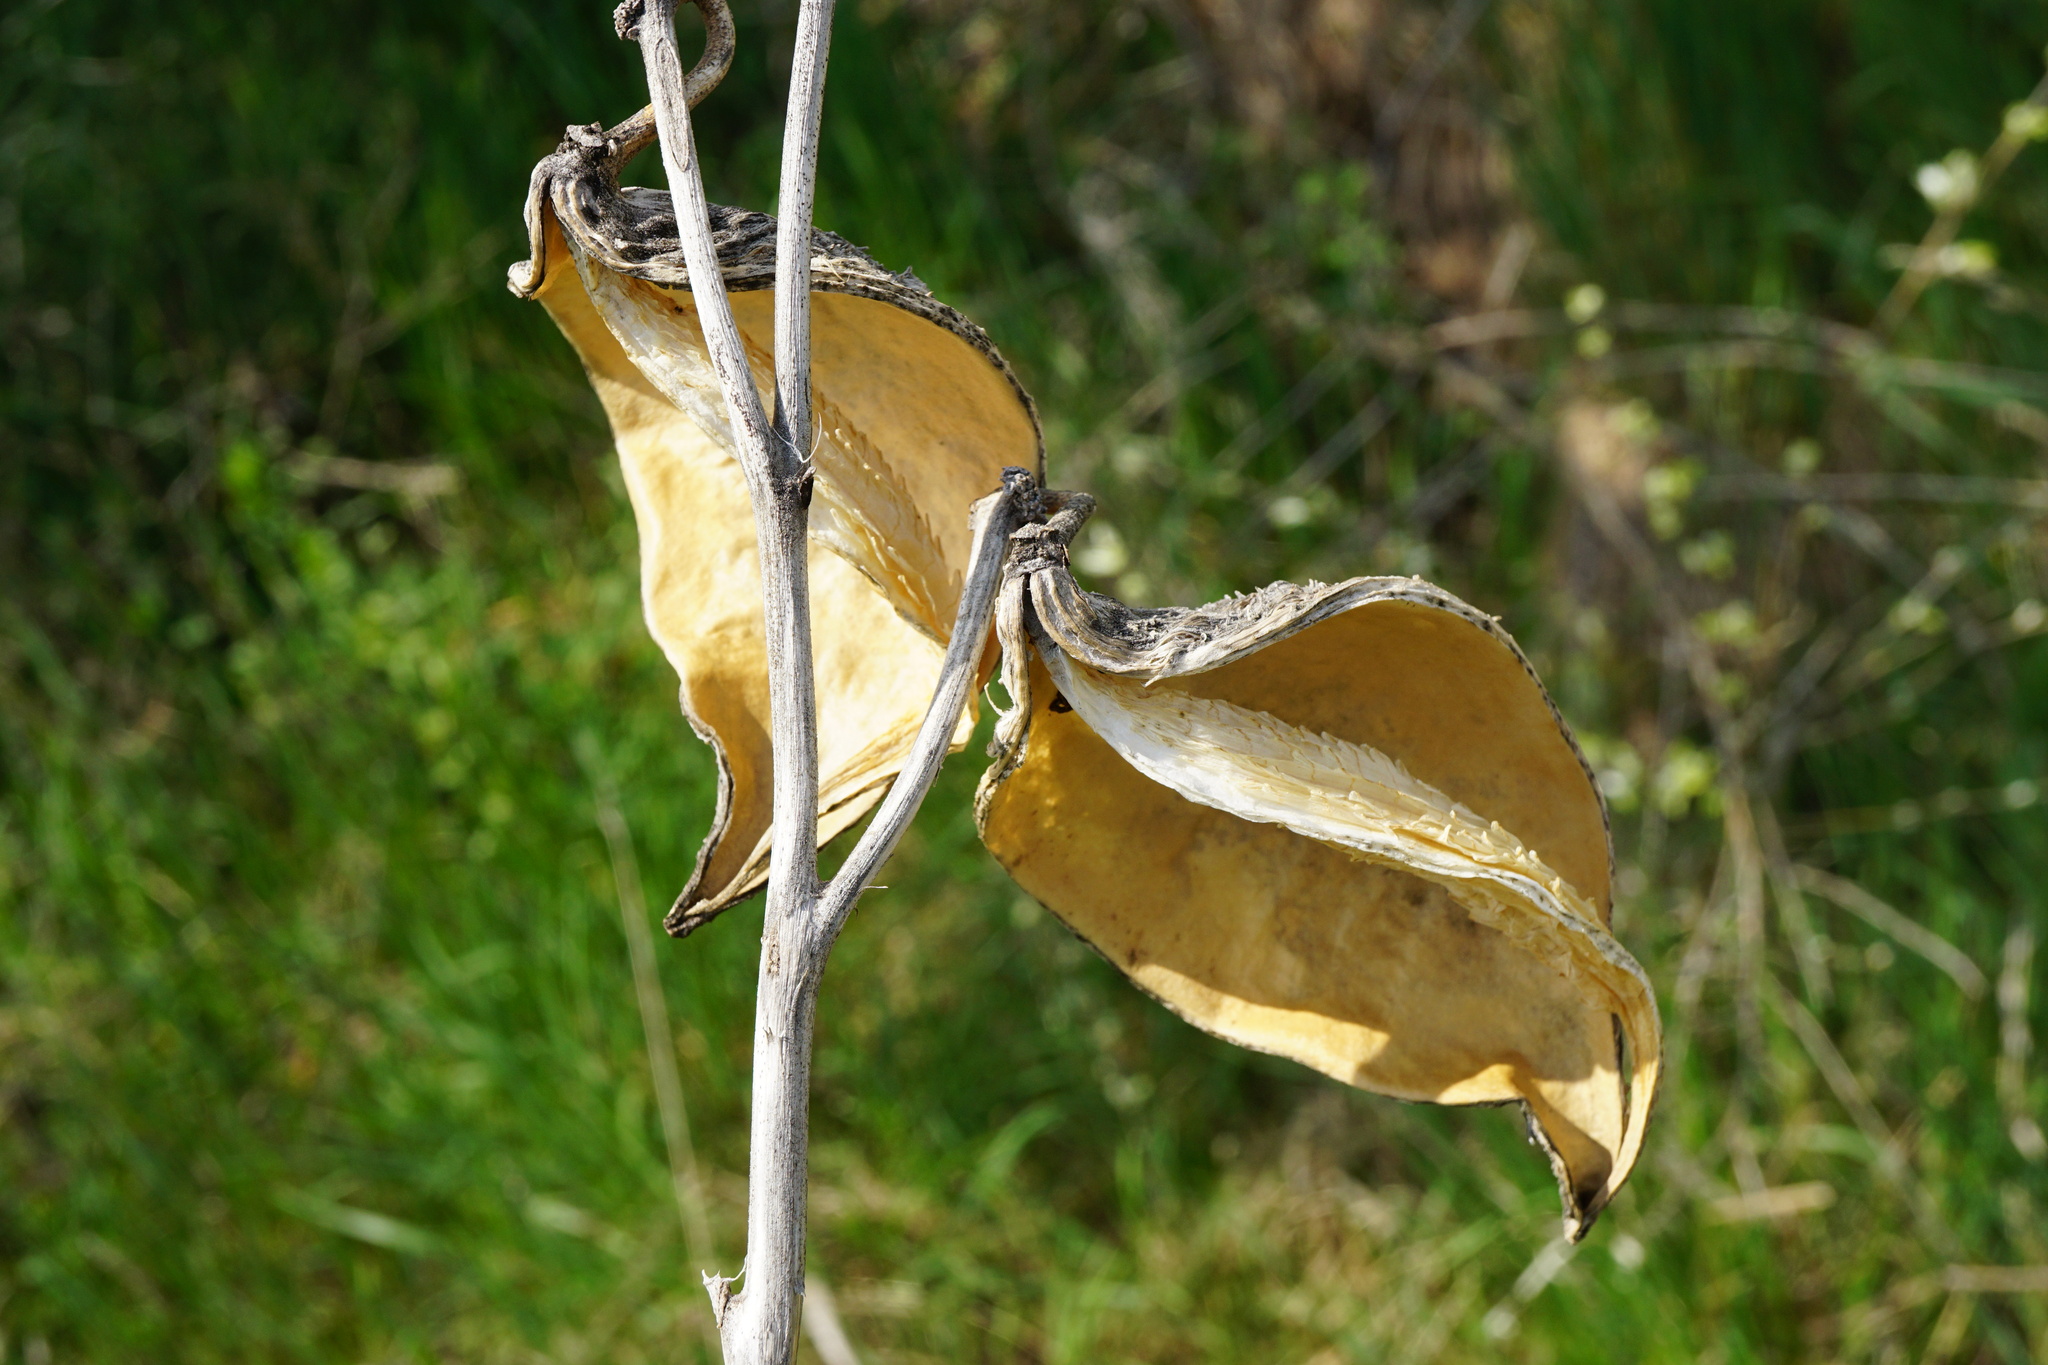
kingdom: Plantae
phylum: Tracheophyta
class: Magnoliopsida
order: Gentianales
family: Apocynaceae
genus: Asclepias
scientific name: Asclepias syriaca
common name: Common milkweed
